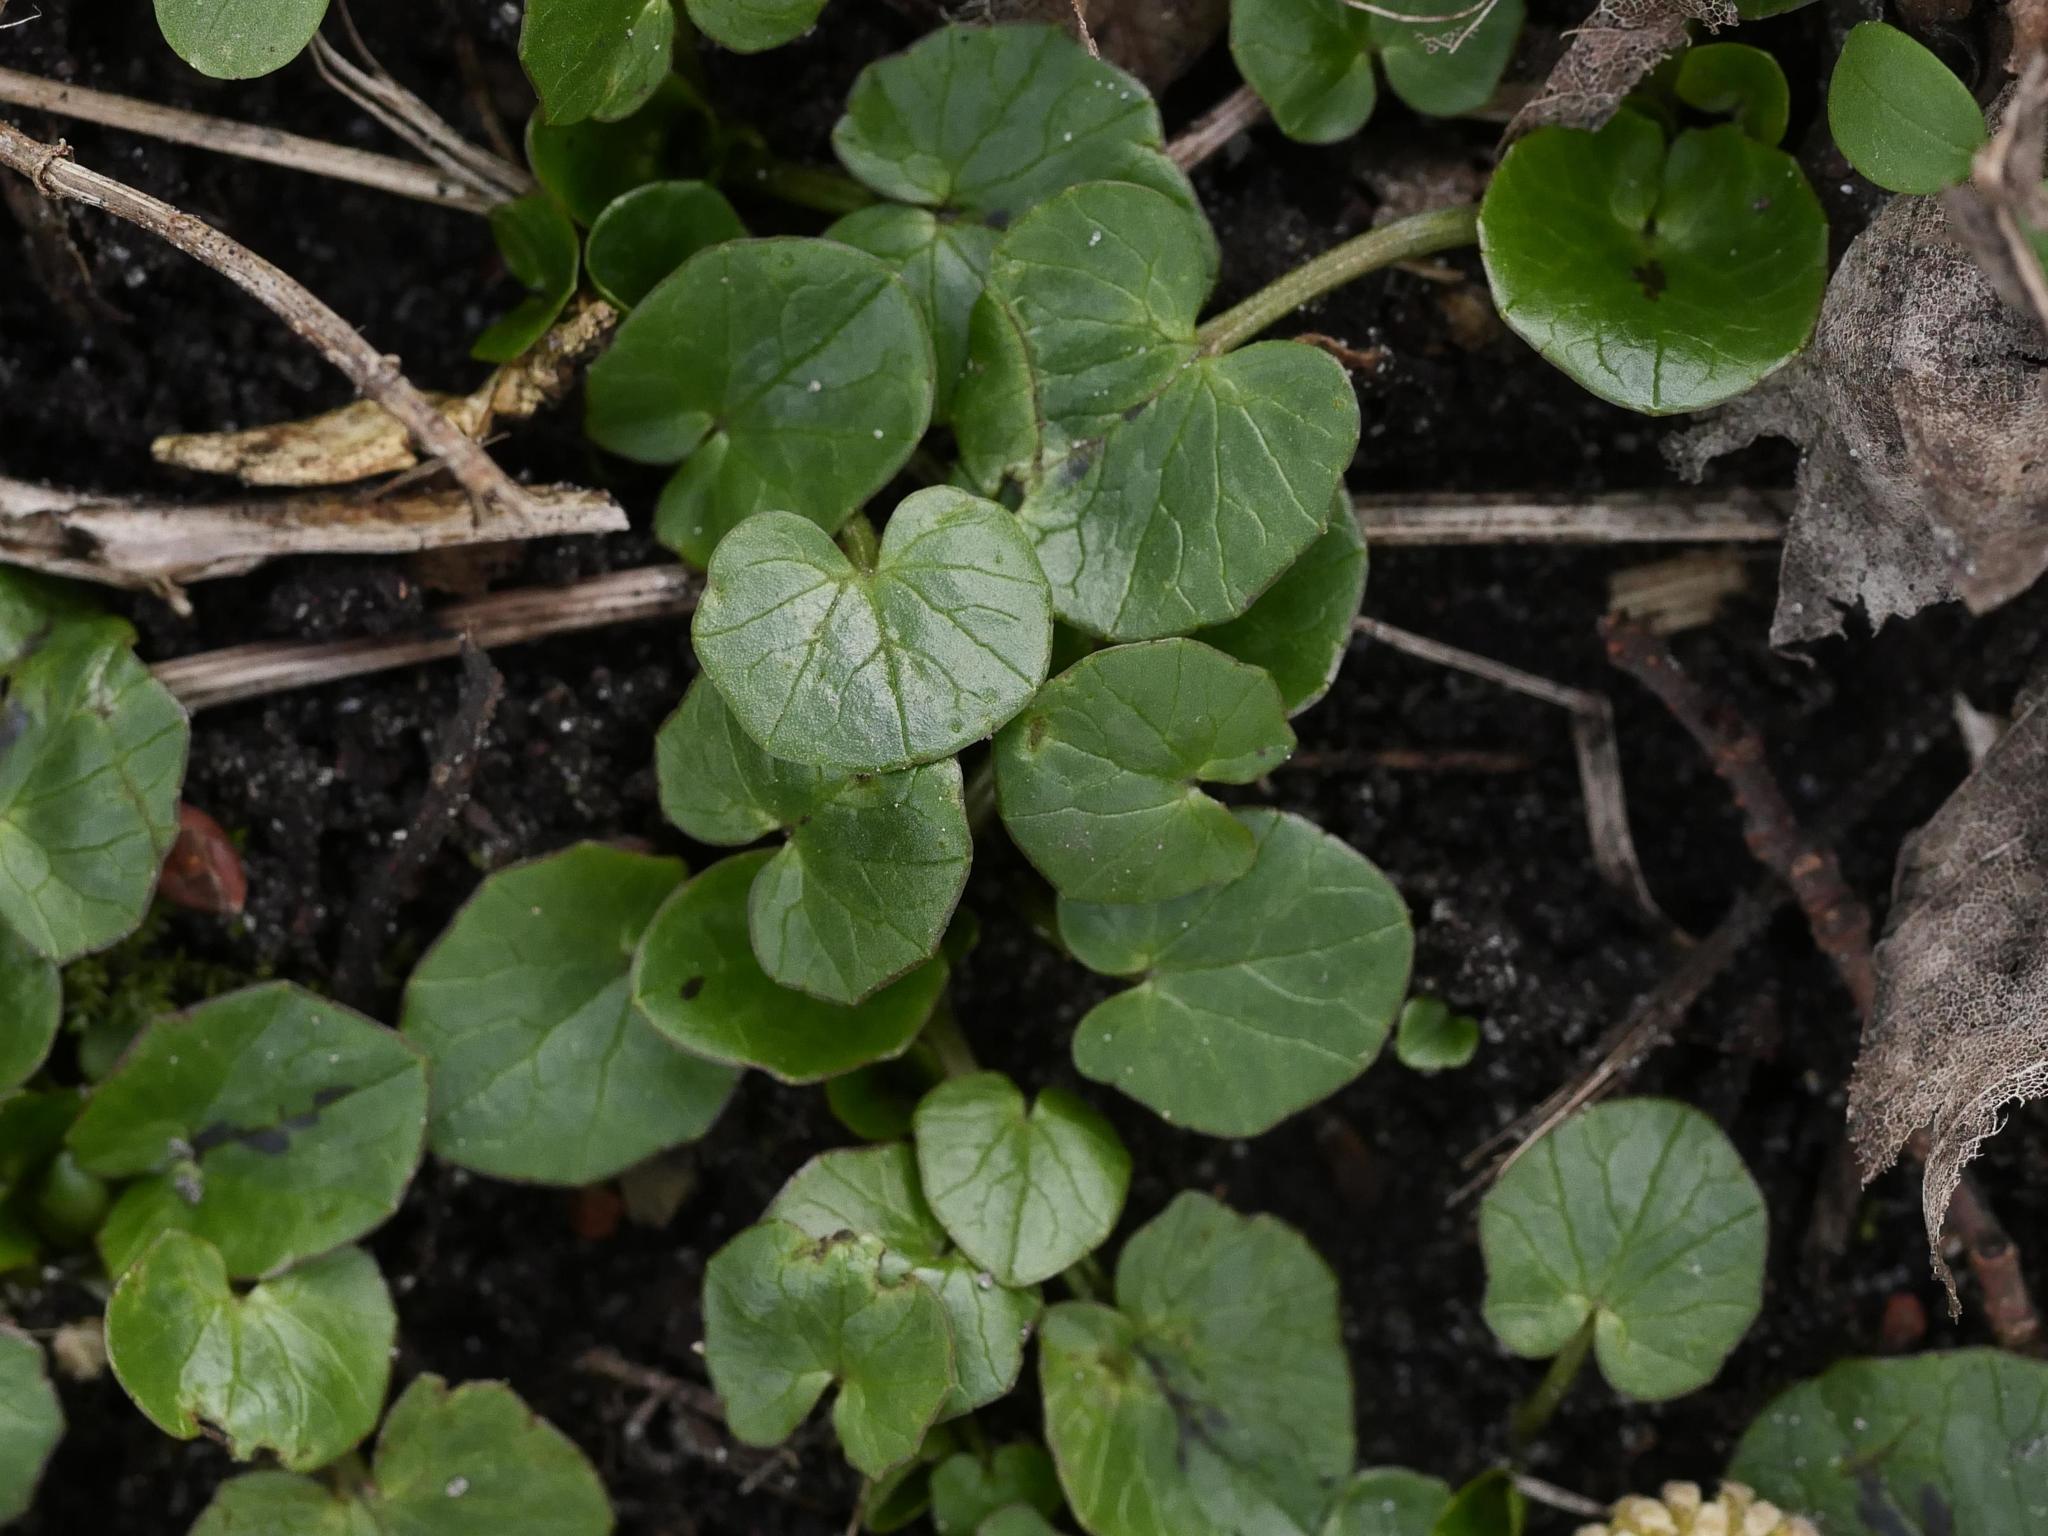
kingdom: Plantae
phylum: Tracheophyta
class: Magnoliopsida
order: Ranunculales
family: Ranunculaceae
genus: Ficaria
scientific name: Ficaria verna
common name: Lesser celandine
